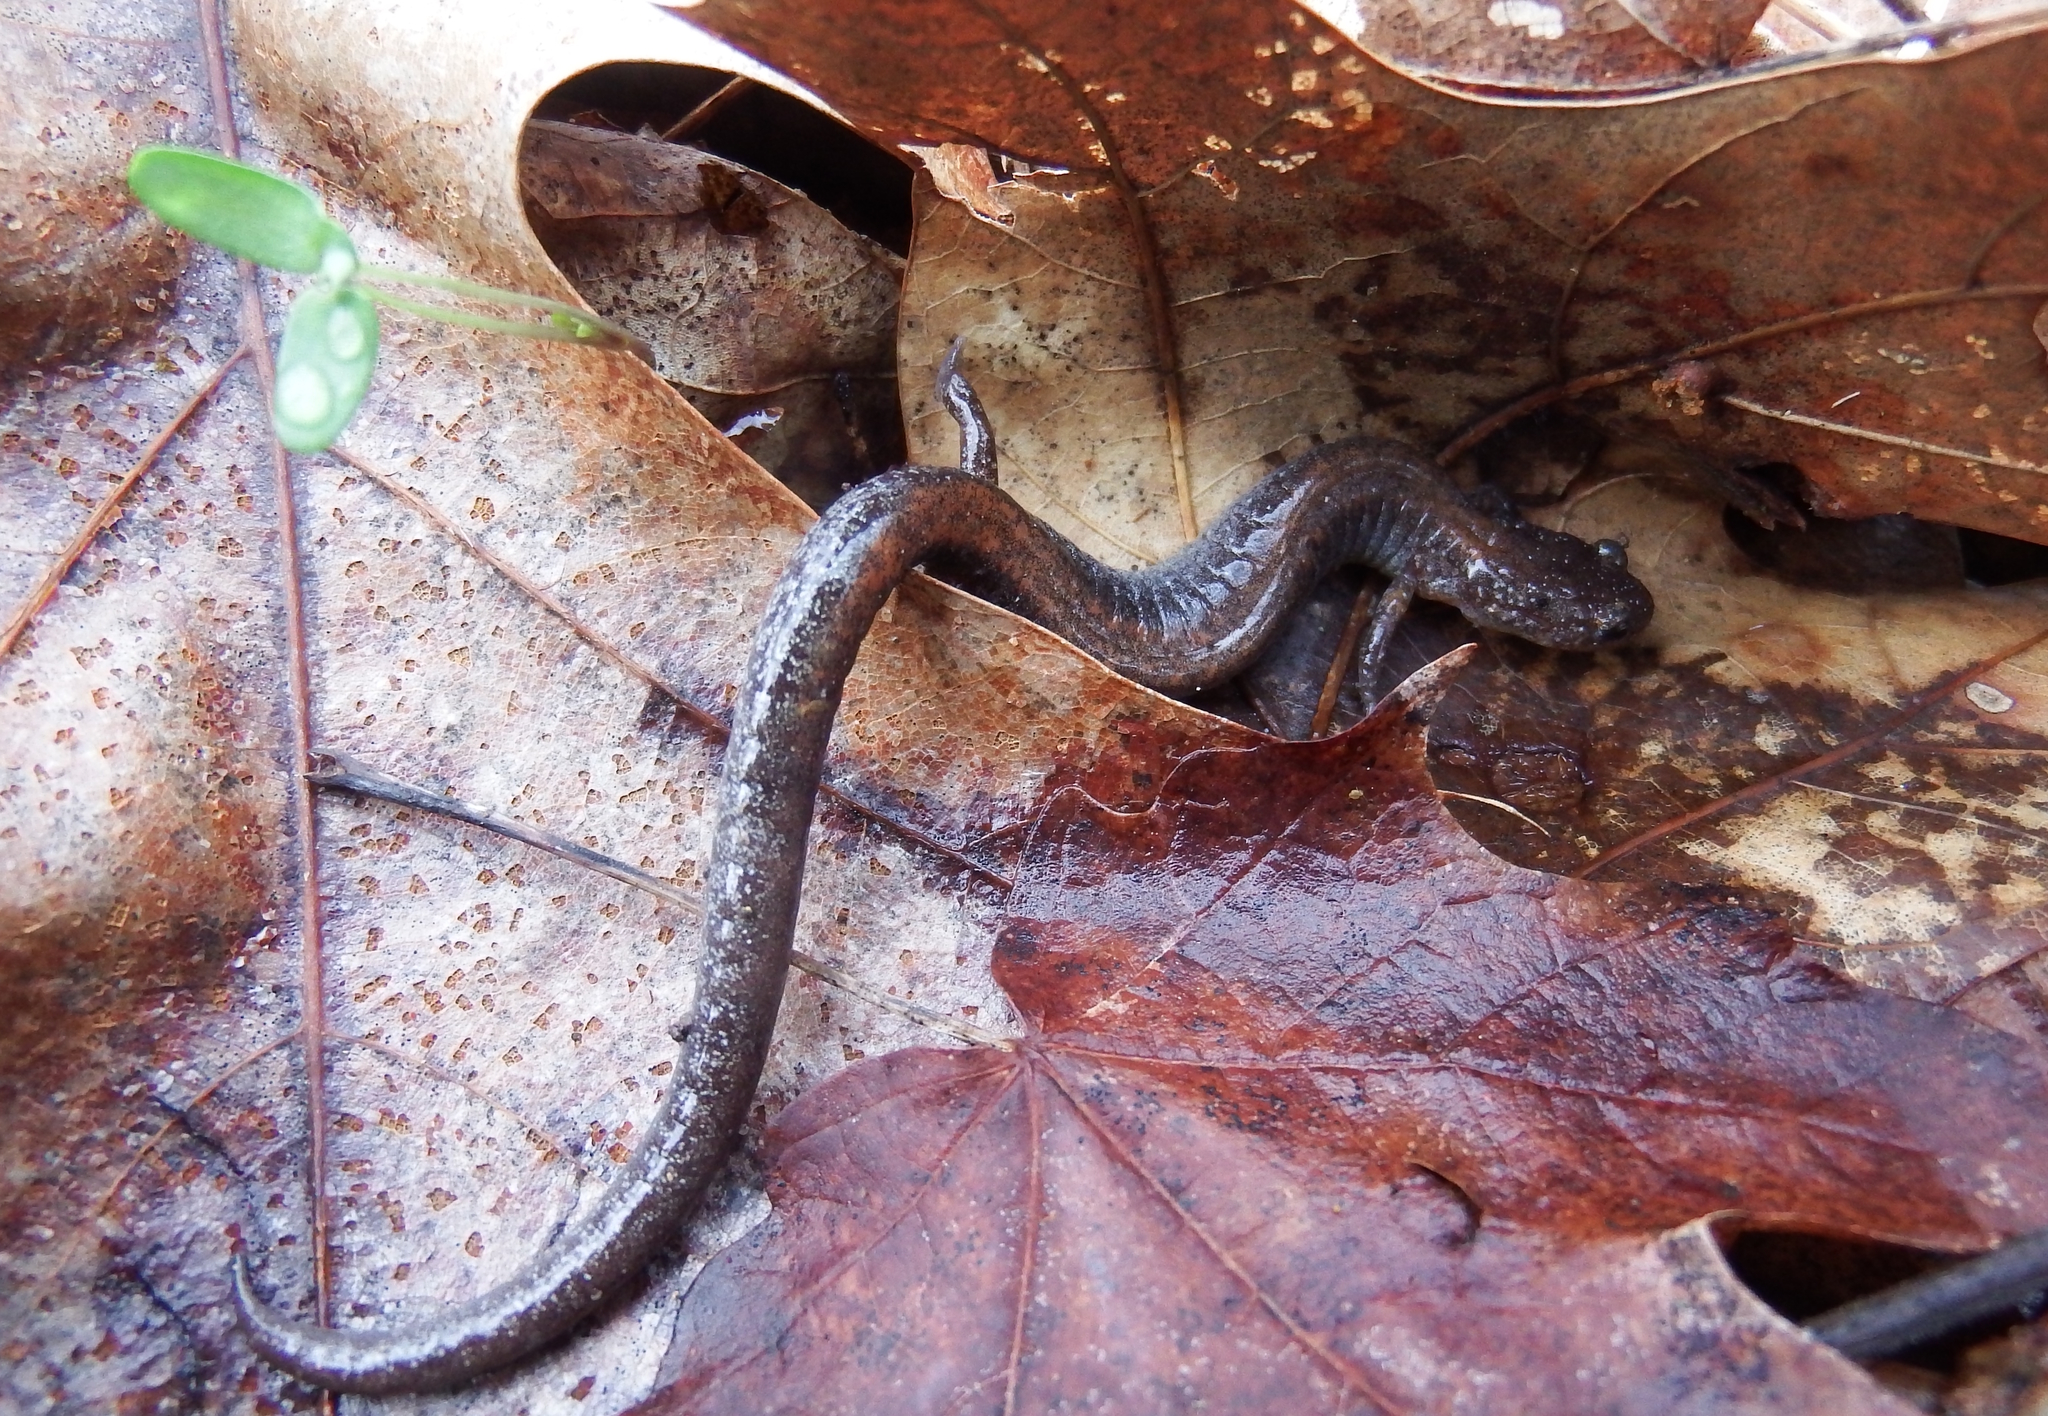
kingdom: Animalia
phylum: Chordata
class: Amphibia
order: Caudata
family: Plethodontidae
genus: Plethodon
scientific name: Plethodon cinereus
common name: Redback salamander
